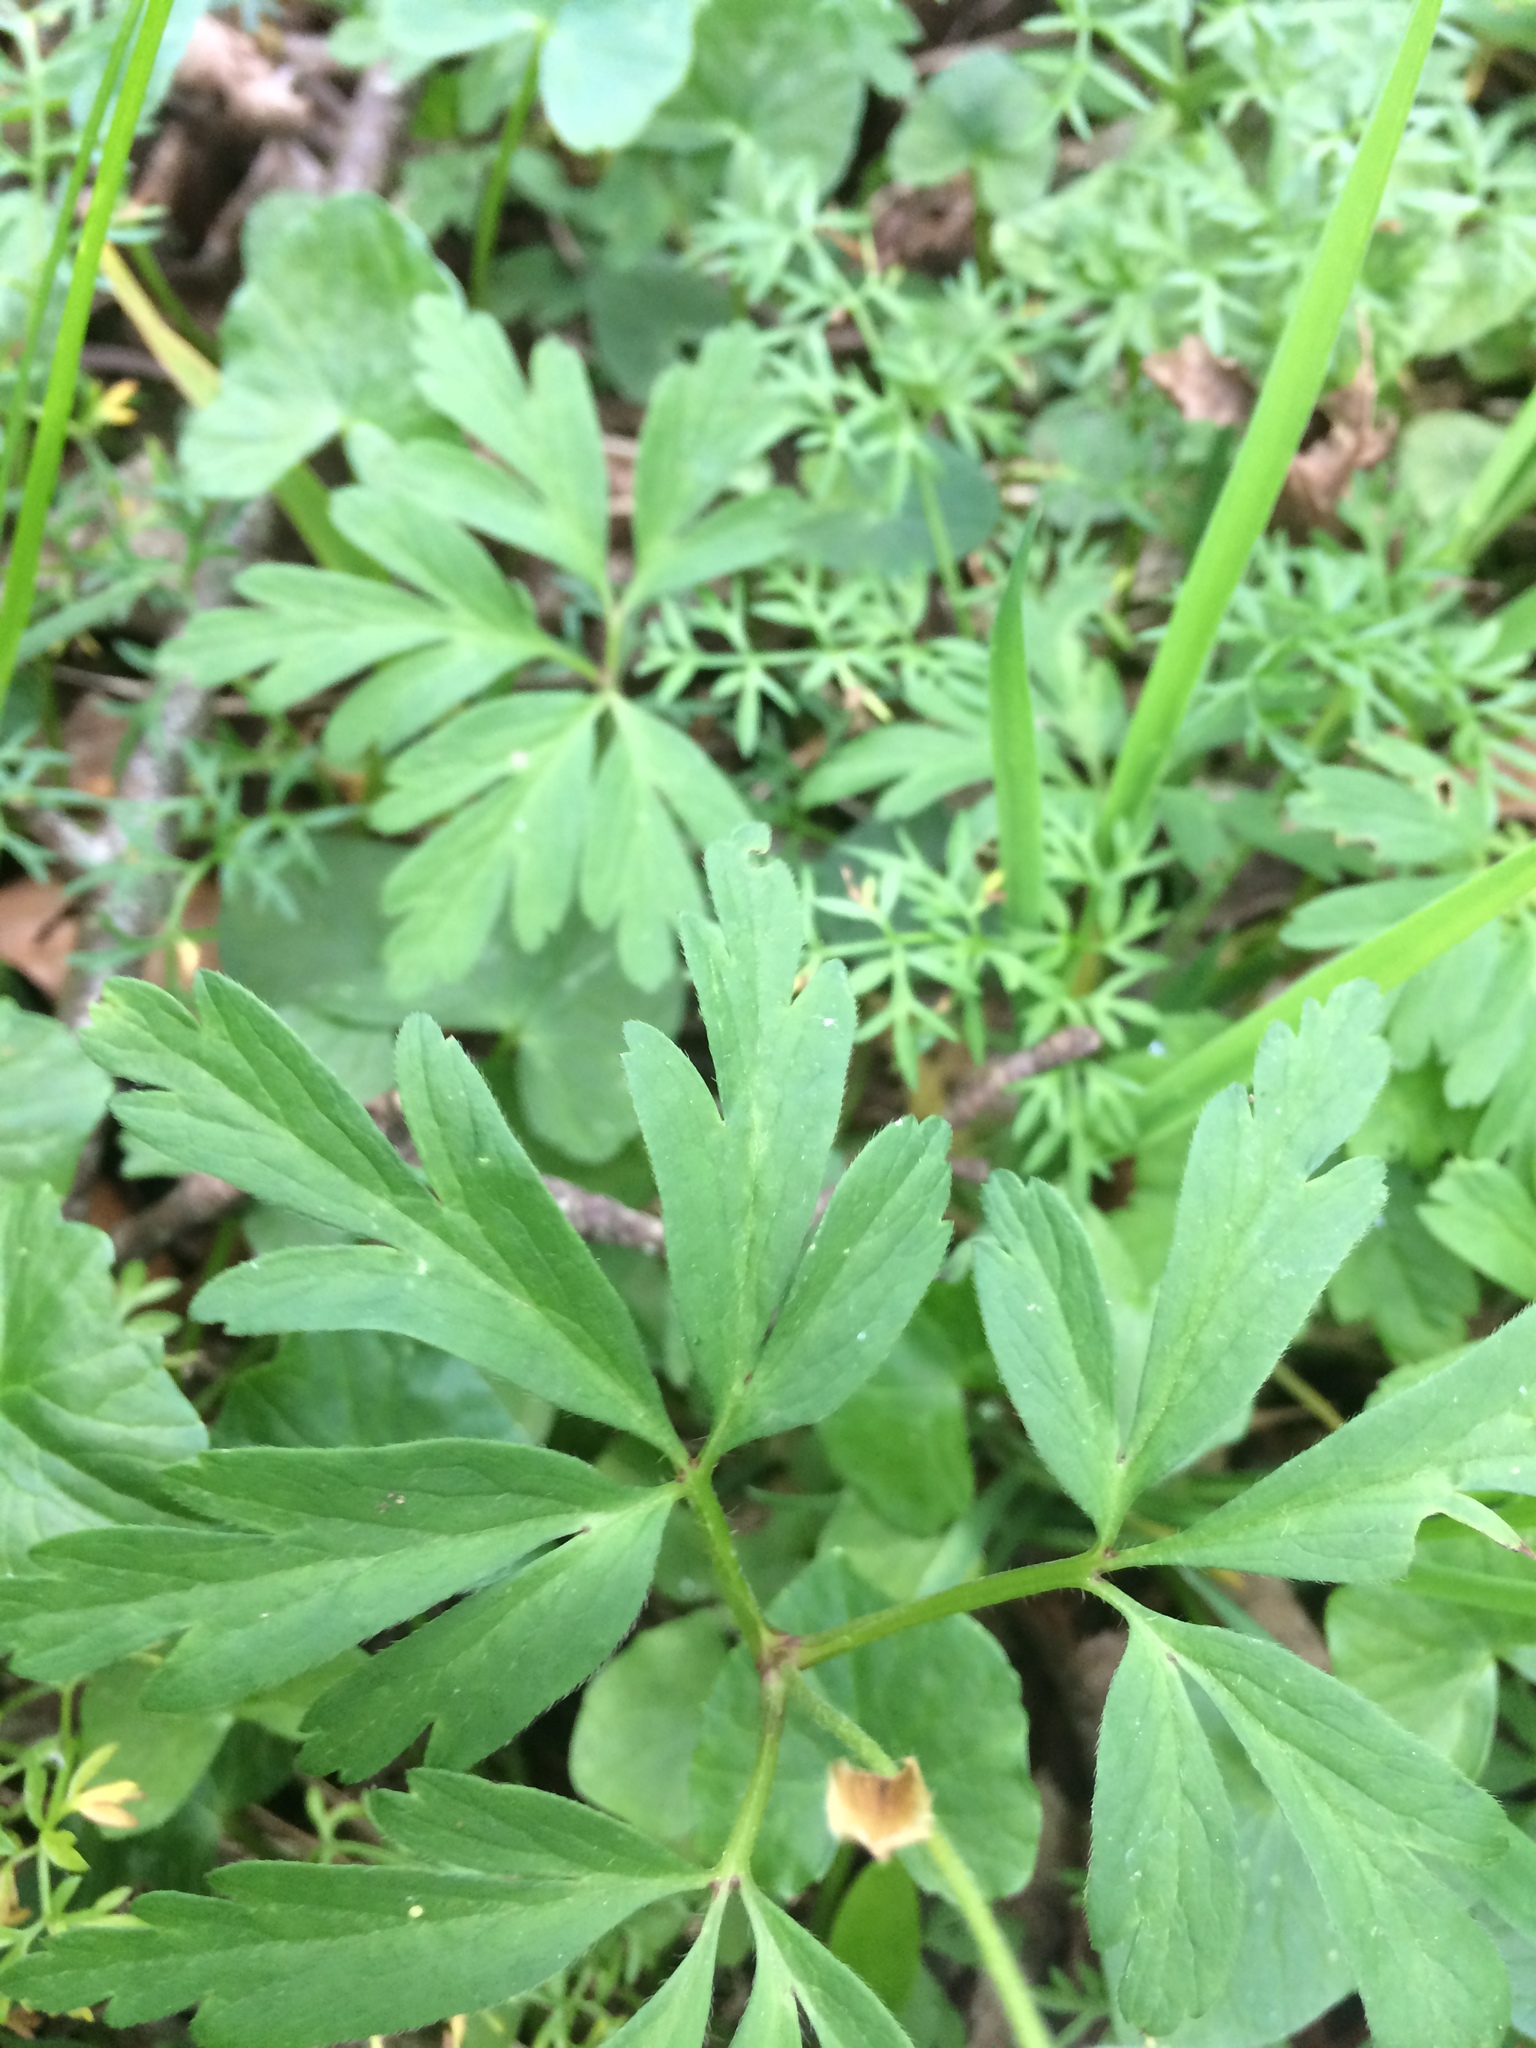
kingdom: Plantae
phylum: Tracheophyta
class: Magnoliopsida
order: Ranunculales
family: Ranunculaceae
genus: Anemone
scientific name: Anemone nemorosa
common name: Wood anemone
